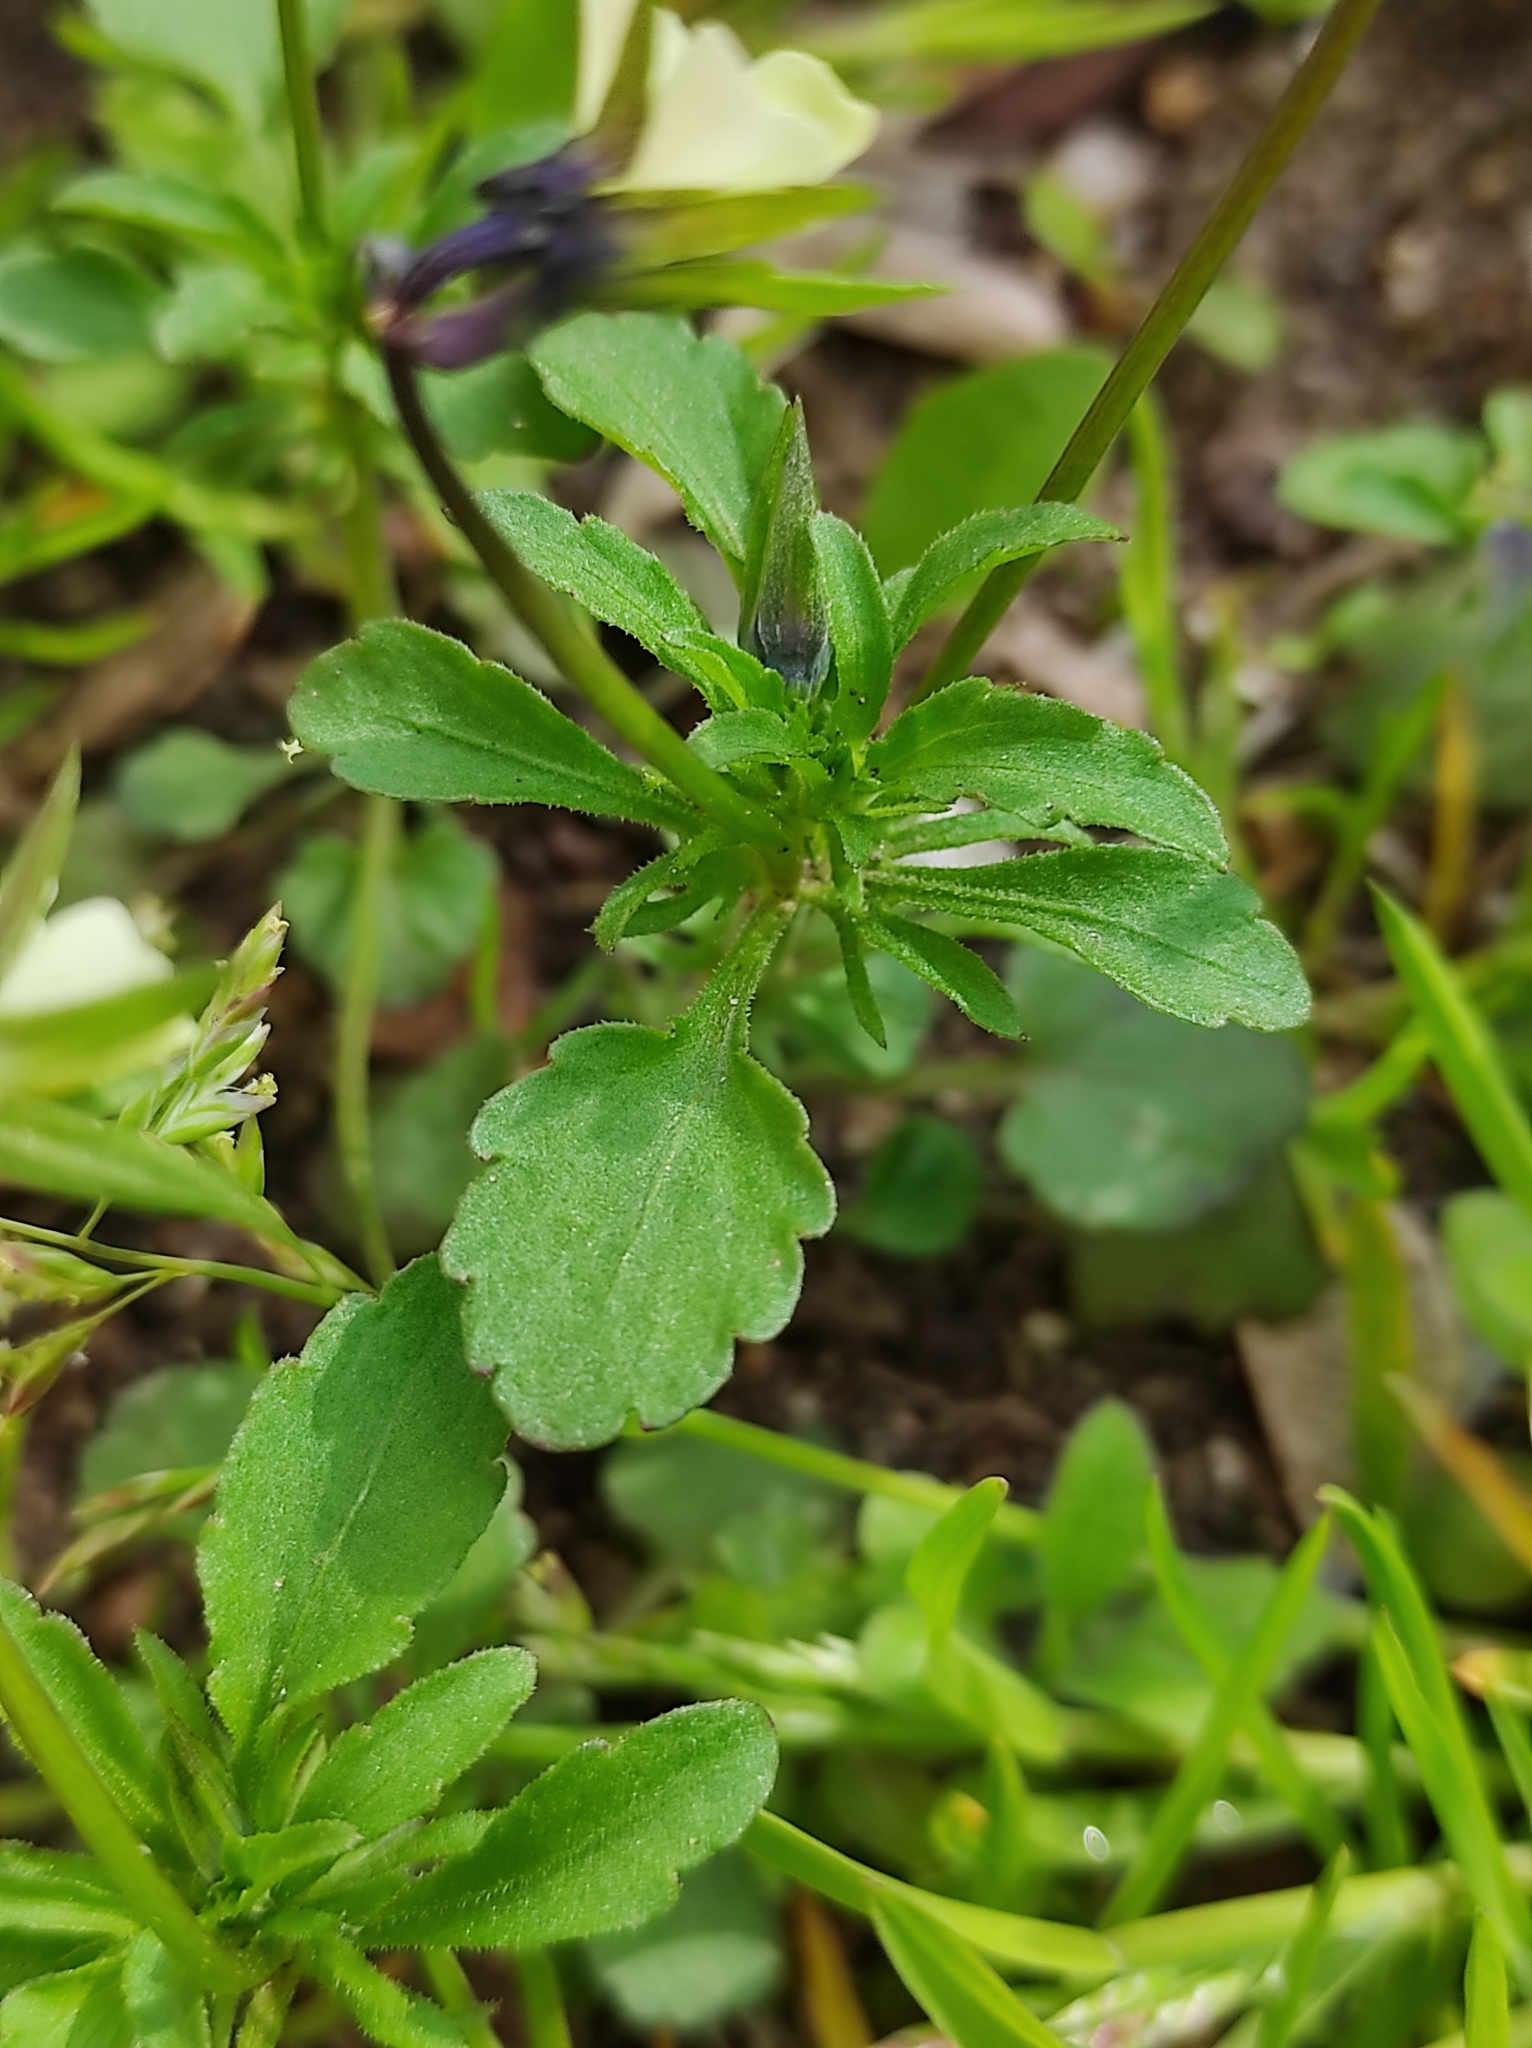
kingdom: Plantae
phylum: Tracheophyta
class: Magnoliopsida
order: Malpighiales
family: Violaceae
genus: Viola
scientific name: Viola arvensis
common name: Field pansy
